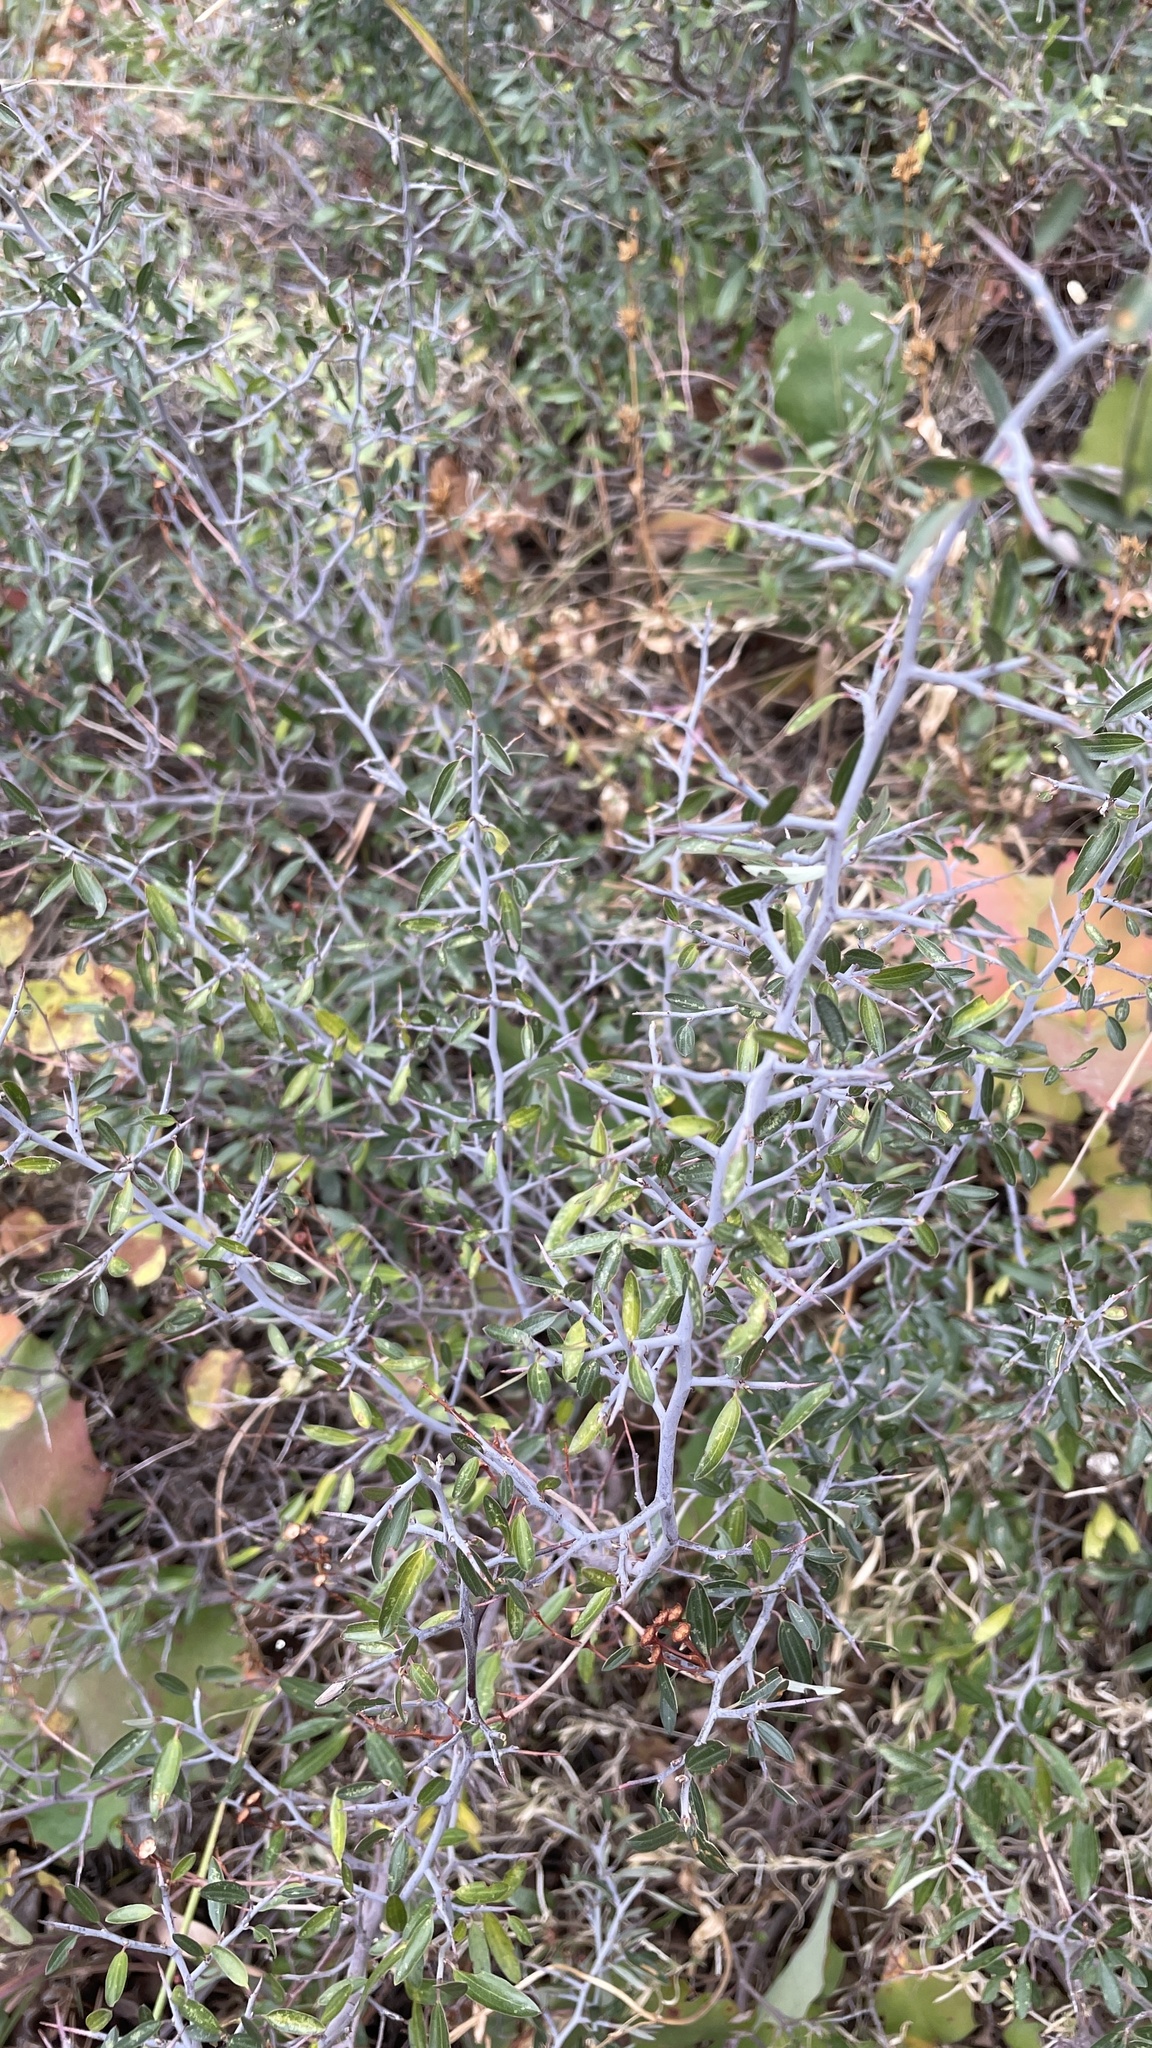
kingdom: Plantae
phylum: Tracheophyta
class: Magnoliopsida
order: Rosales
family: Rhamnaceae
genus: Ceanothus
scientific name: Ceanothus fendleri
